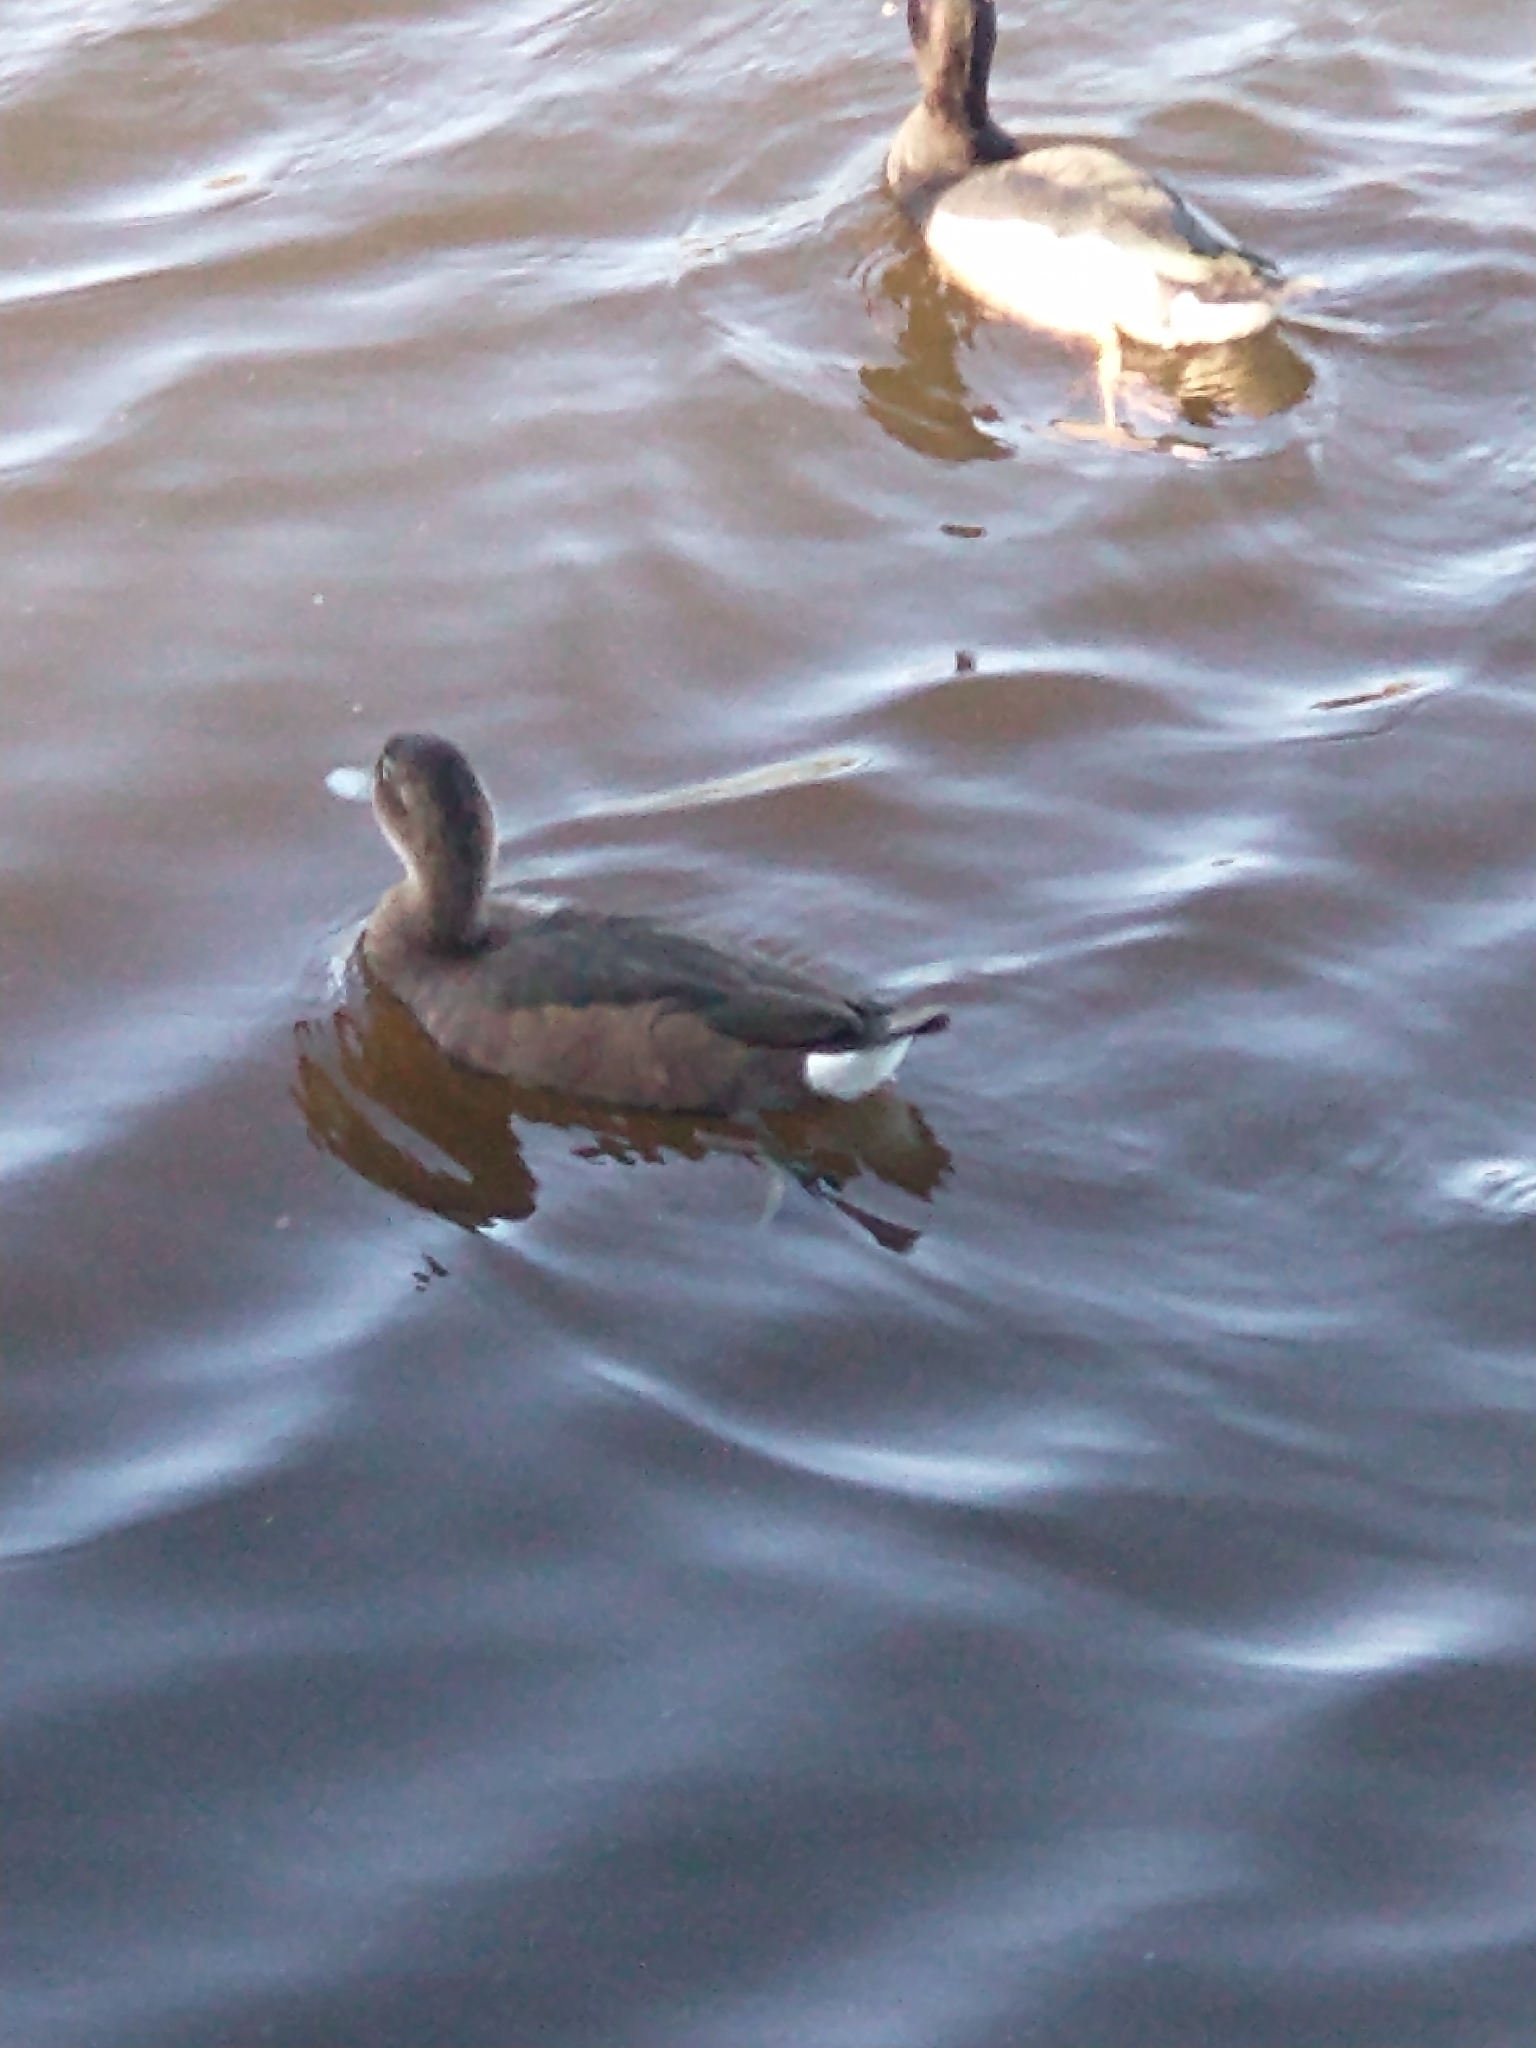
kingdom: Animalia
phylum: Chordata
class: Aves
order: Anseriformes
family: Anatidae
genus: Netta
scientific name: Netta peposaca
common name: Rosy-billed pochard
